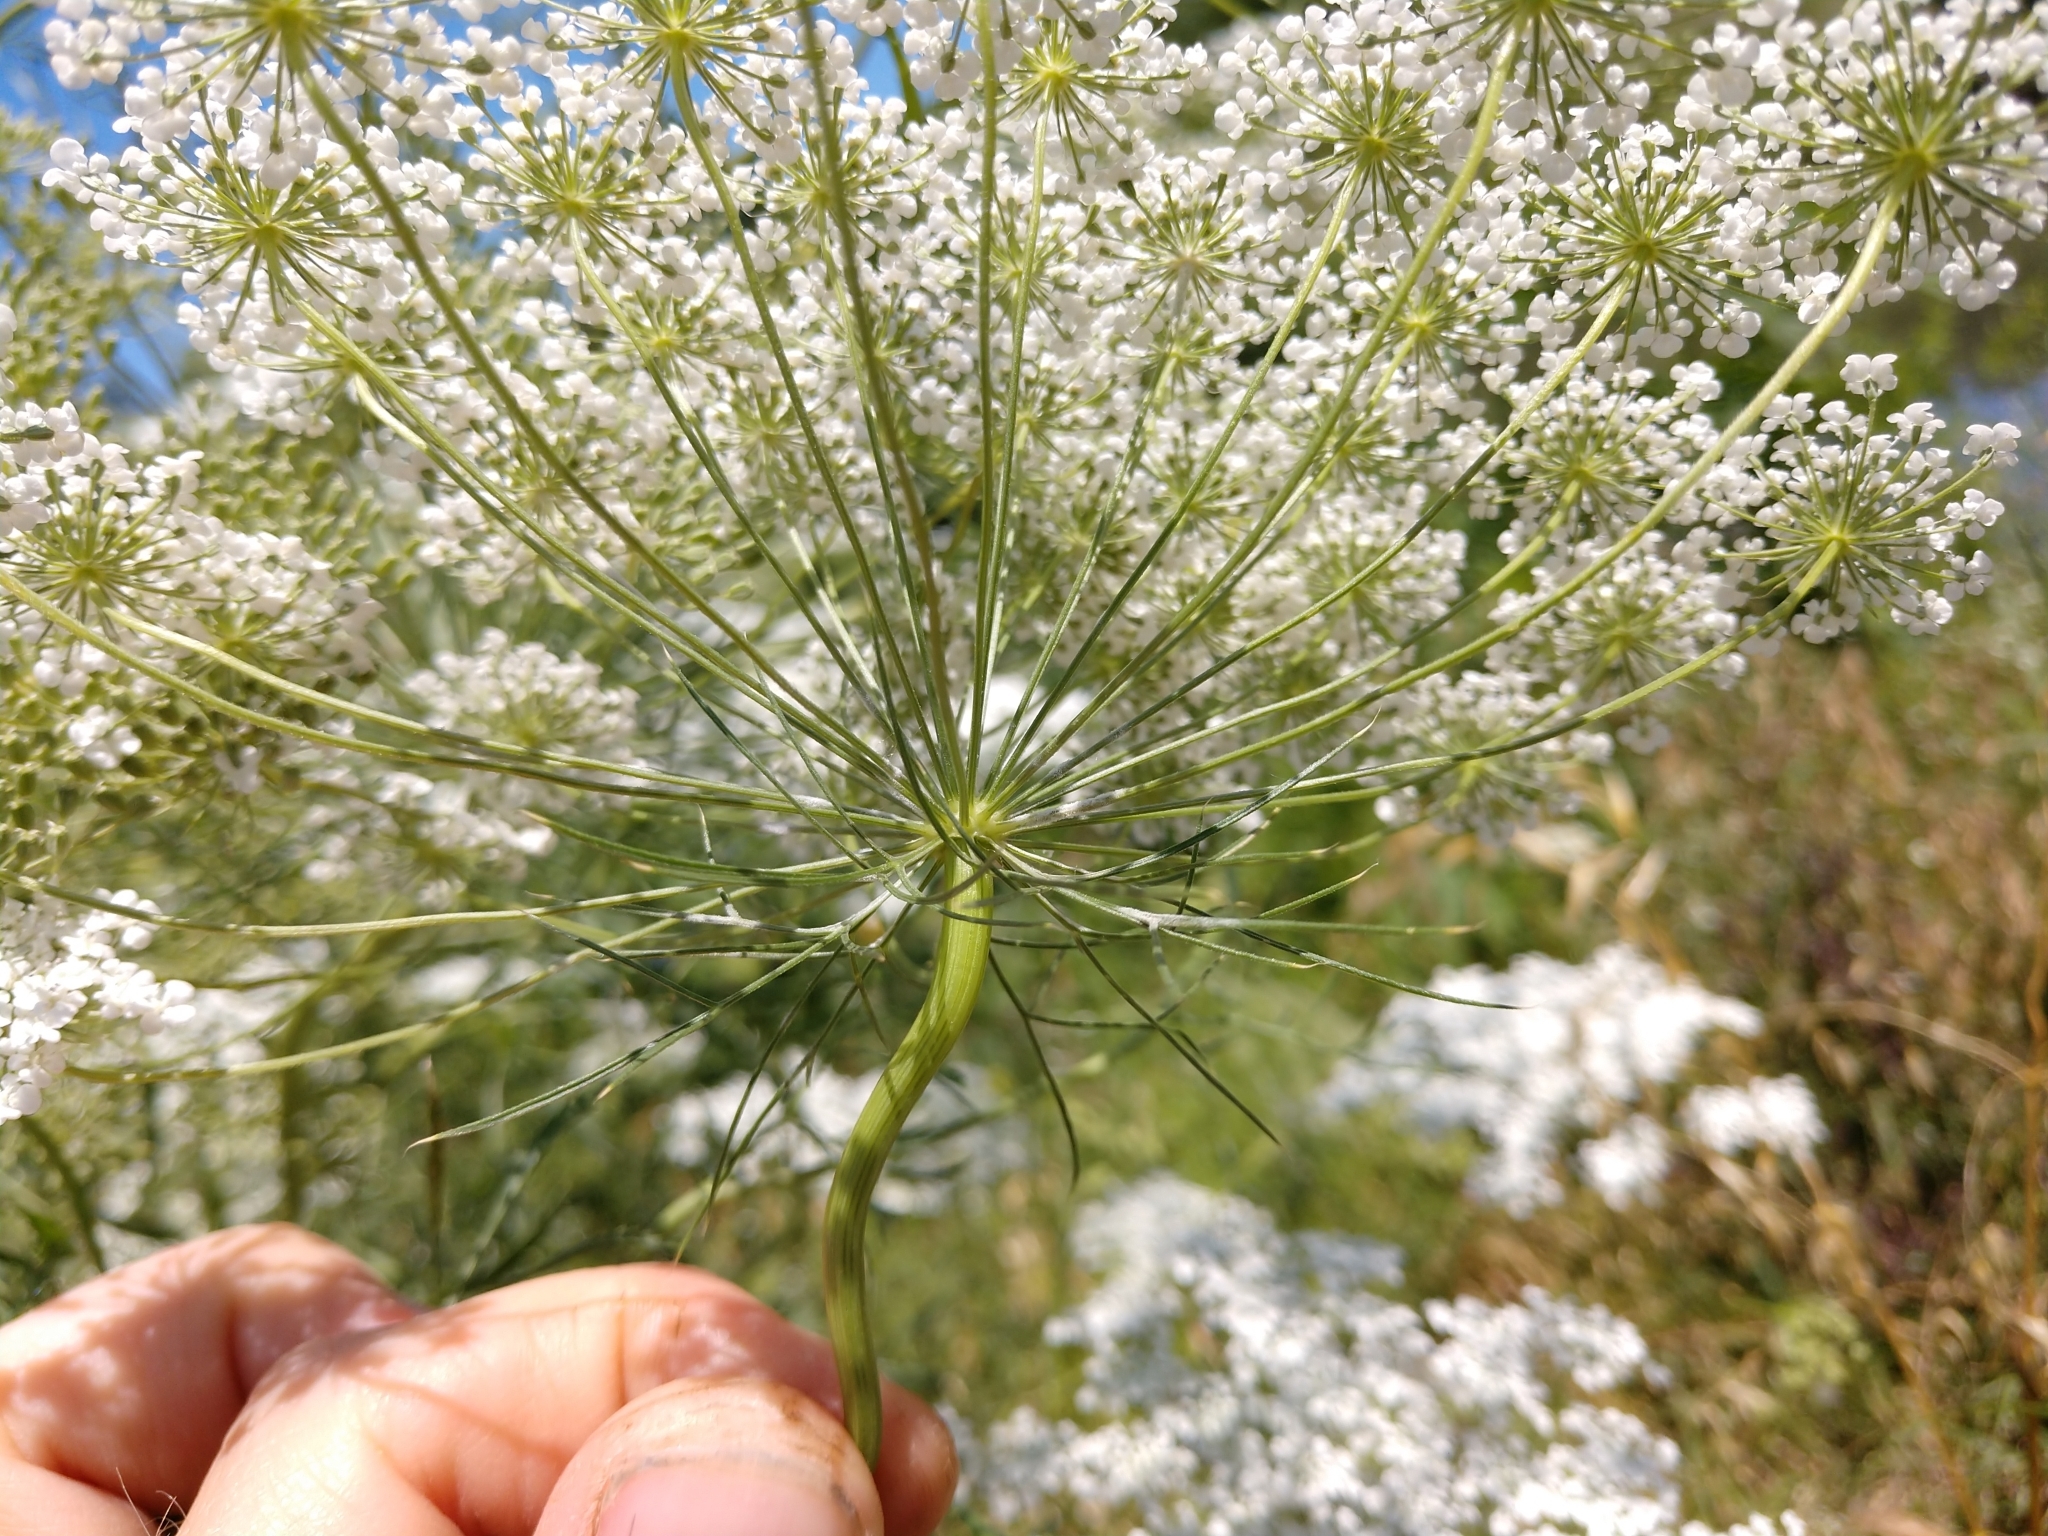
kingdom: Plantae
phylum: Tracheophyta
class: Magnoliopsida
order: Apiales
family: Apiaceae
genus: Ammi
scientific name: Ammi majus
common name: Bullwort
